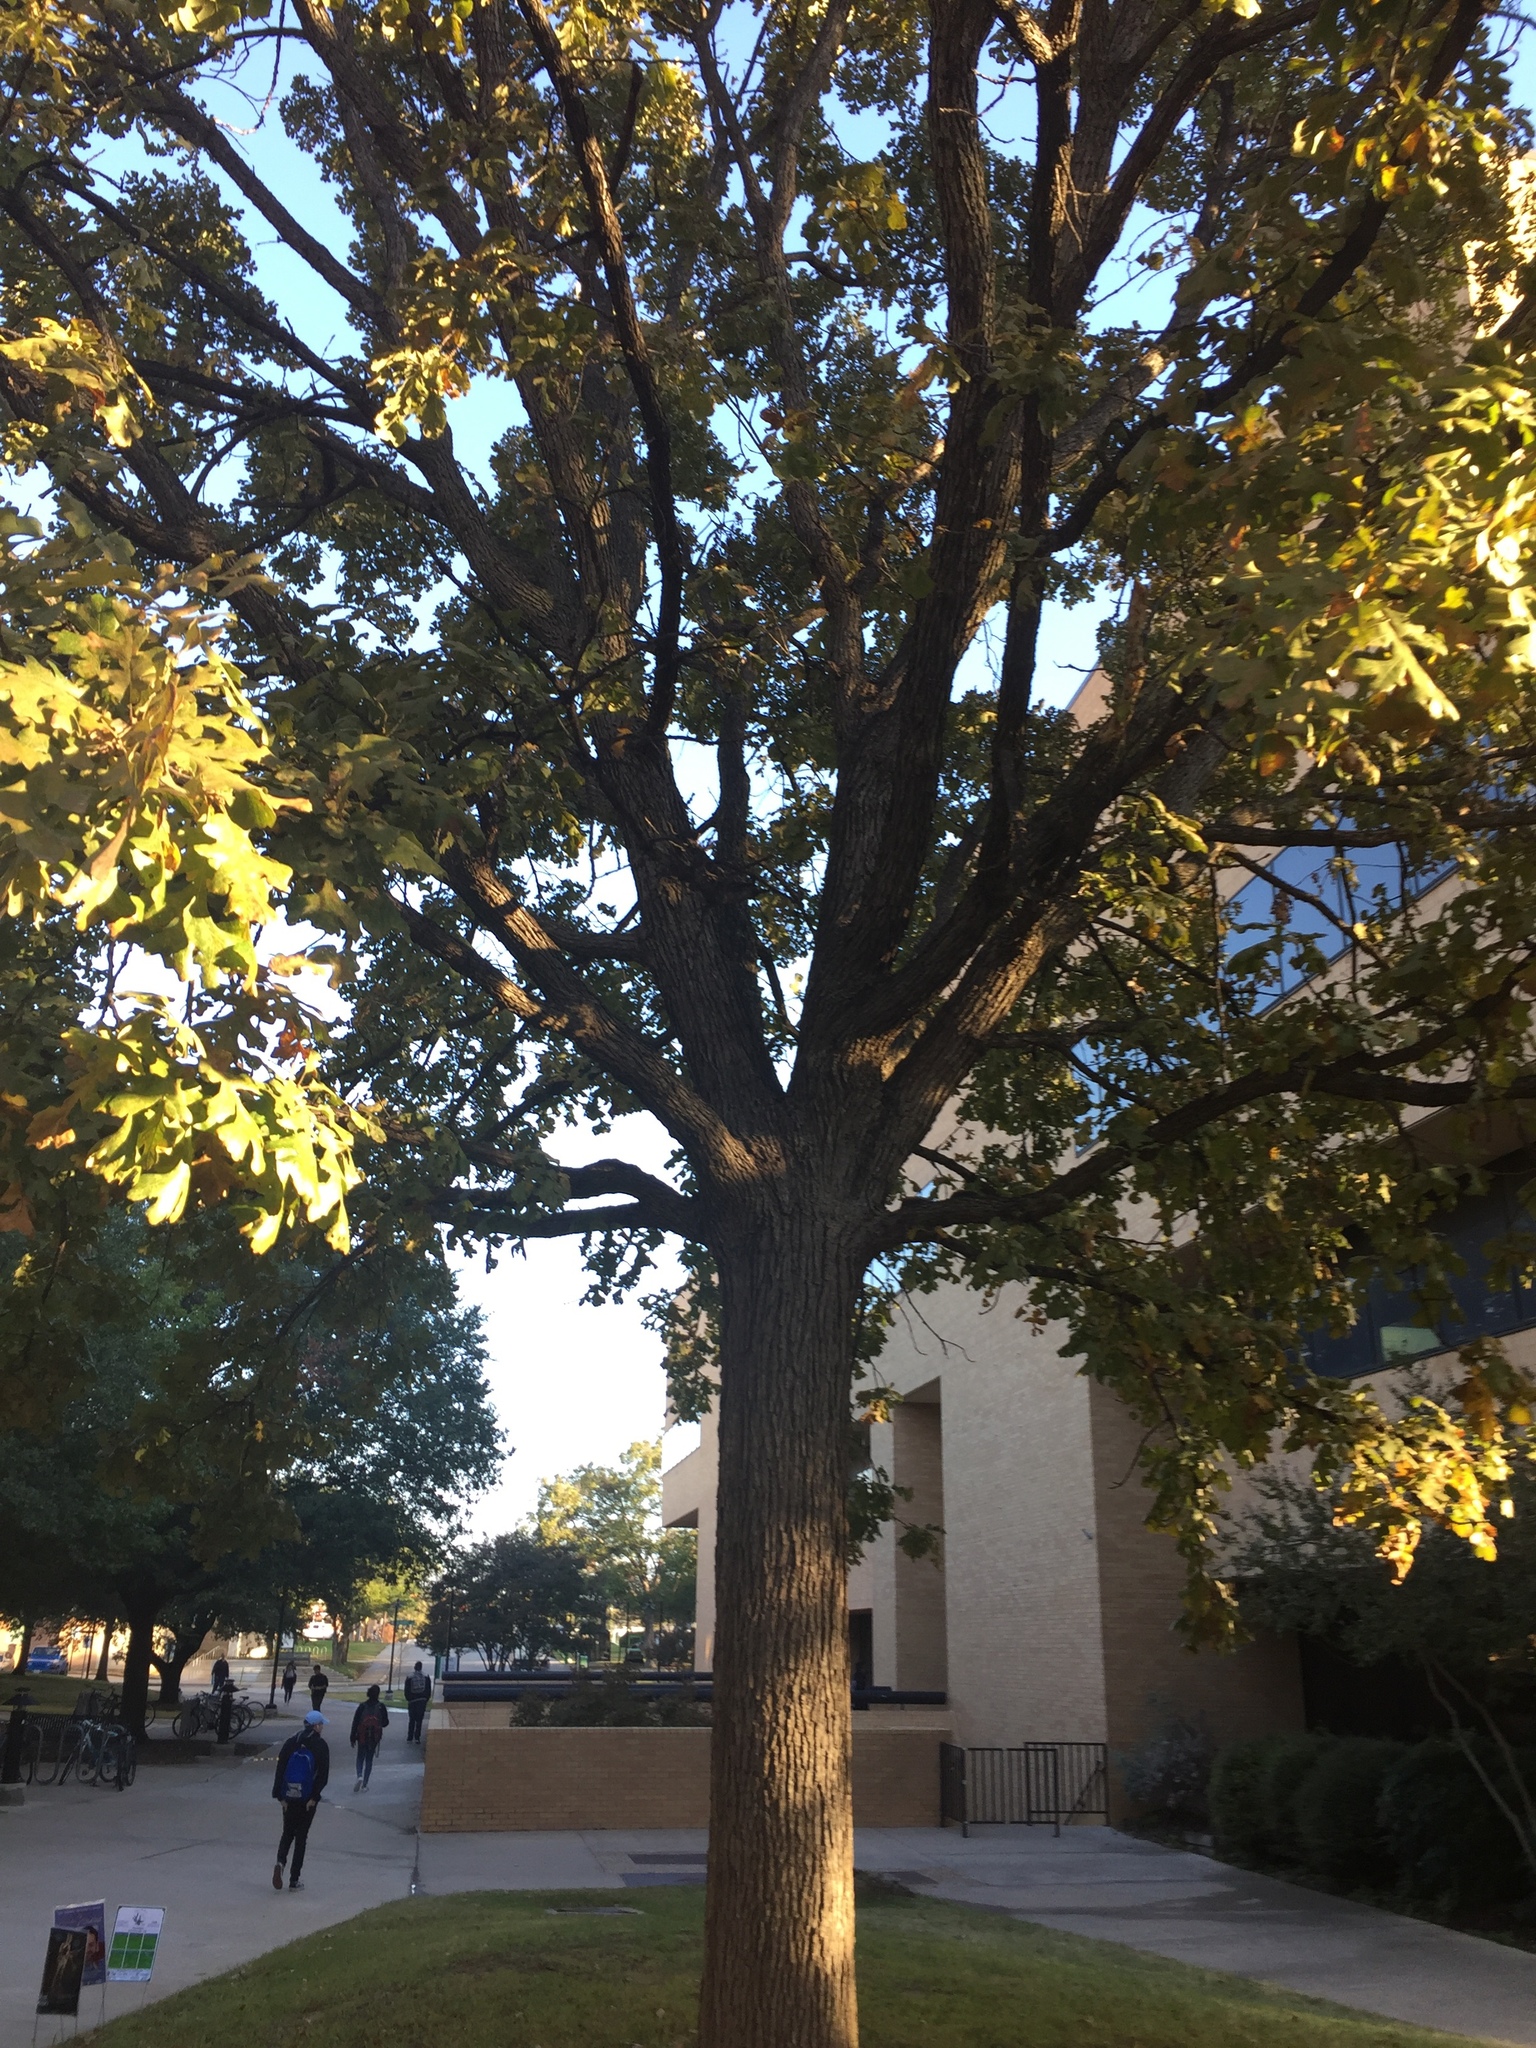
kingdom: Plantae
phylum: Tracheophyta
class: Magnoliopsida
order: Fagales
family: Fagaceae
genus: Quercus
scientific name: Quercus macrocarpa
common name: Bur oak
